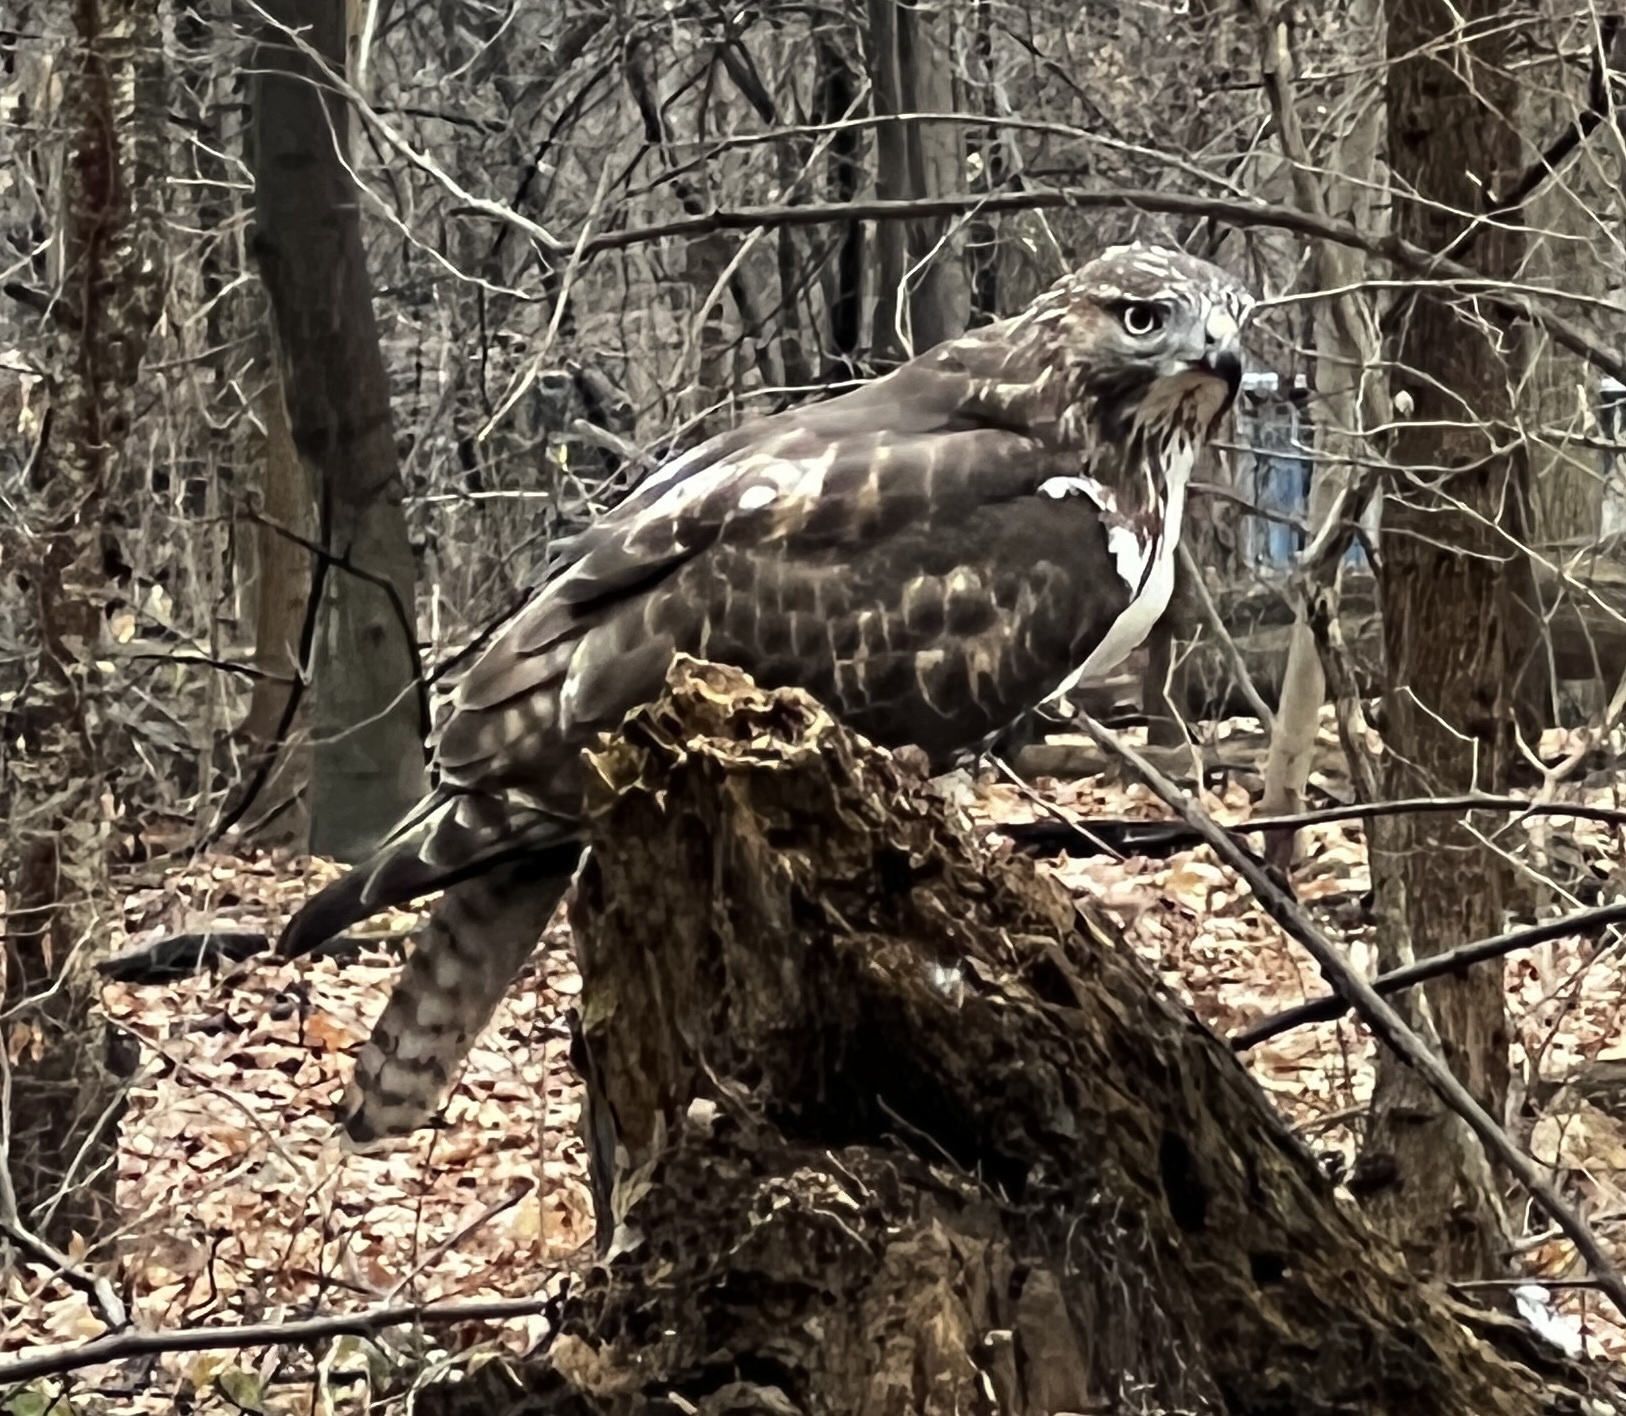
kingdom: Animalia
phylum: Chordata
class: Aves
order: Accipitriformes
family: Accipitridae
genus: Buteo
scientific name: Buteo jamaicensis
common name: Red-tailed hawk
